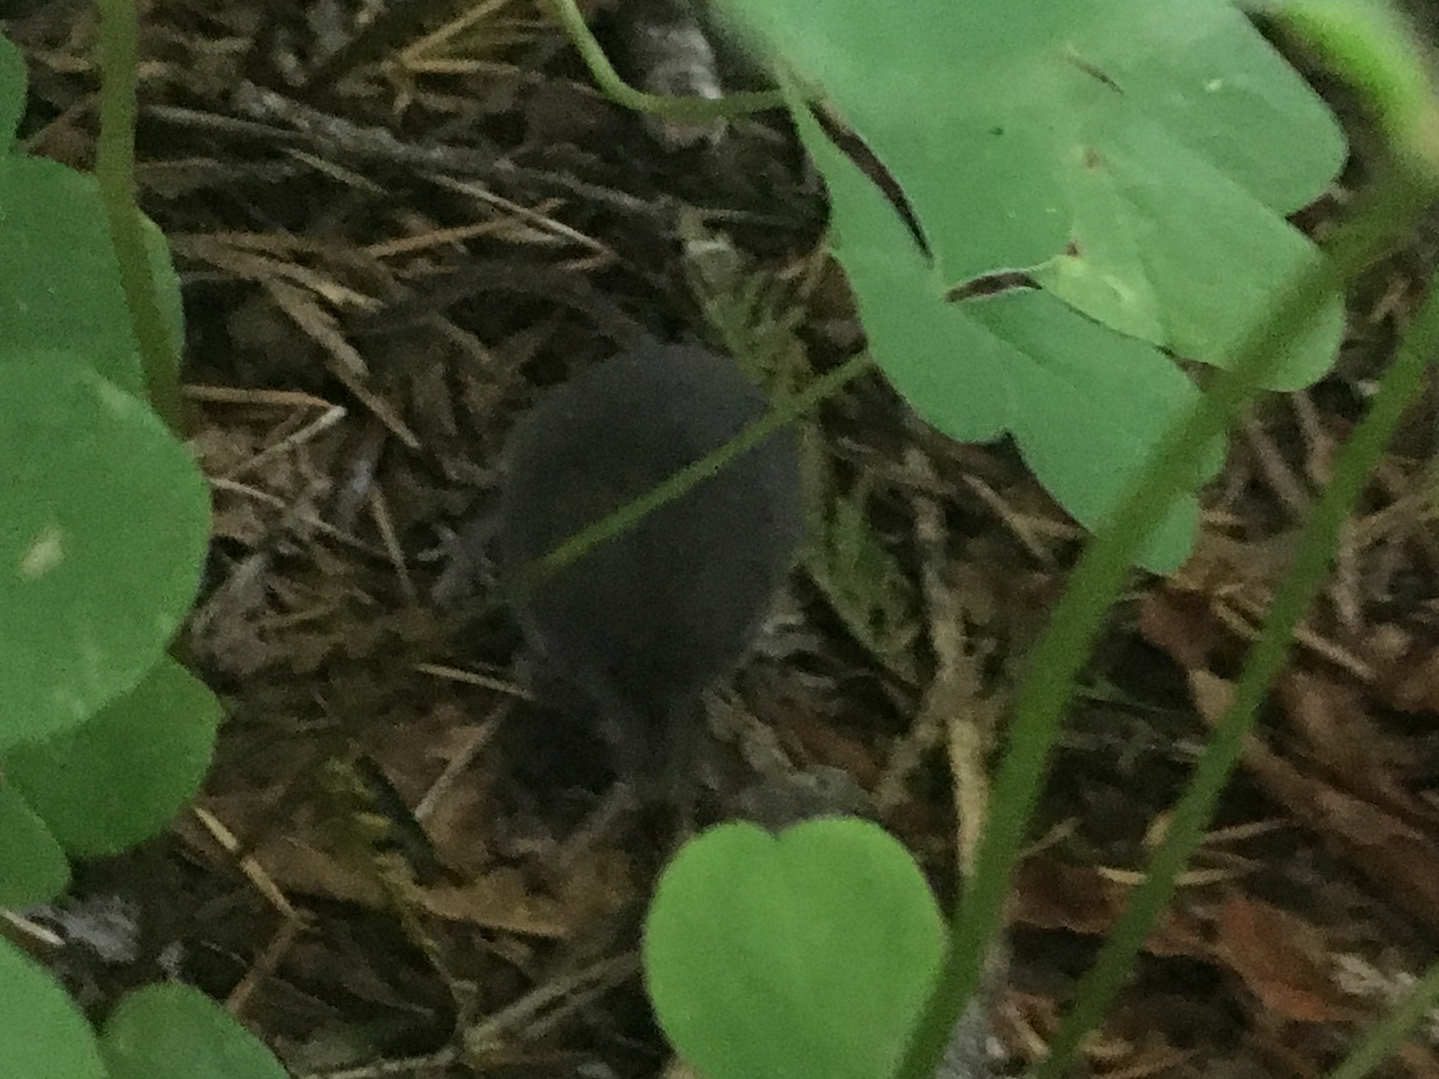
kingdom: Animalia
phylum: Chordata
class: Mammalia
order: Soricomorpha
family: Soricidae
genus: Sorex
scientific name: Sorex trowbridgii
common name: Trowbridge's shrew
